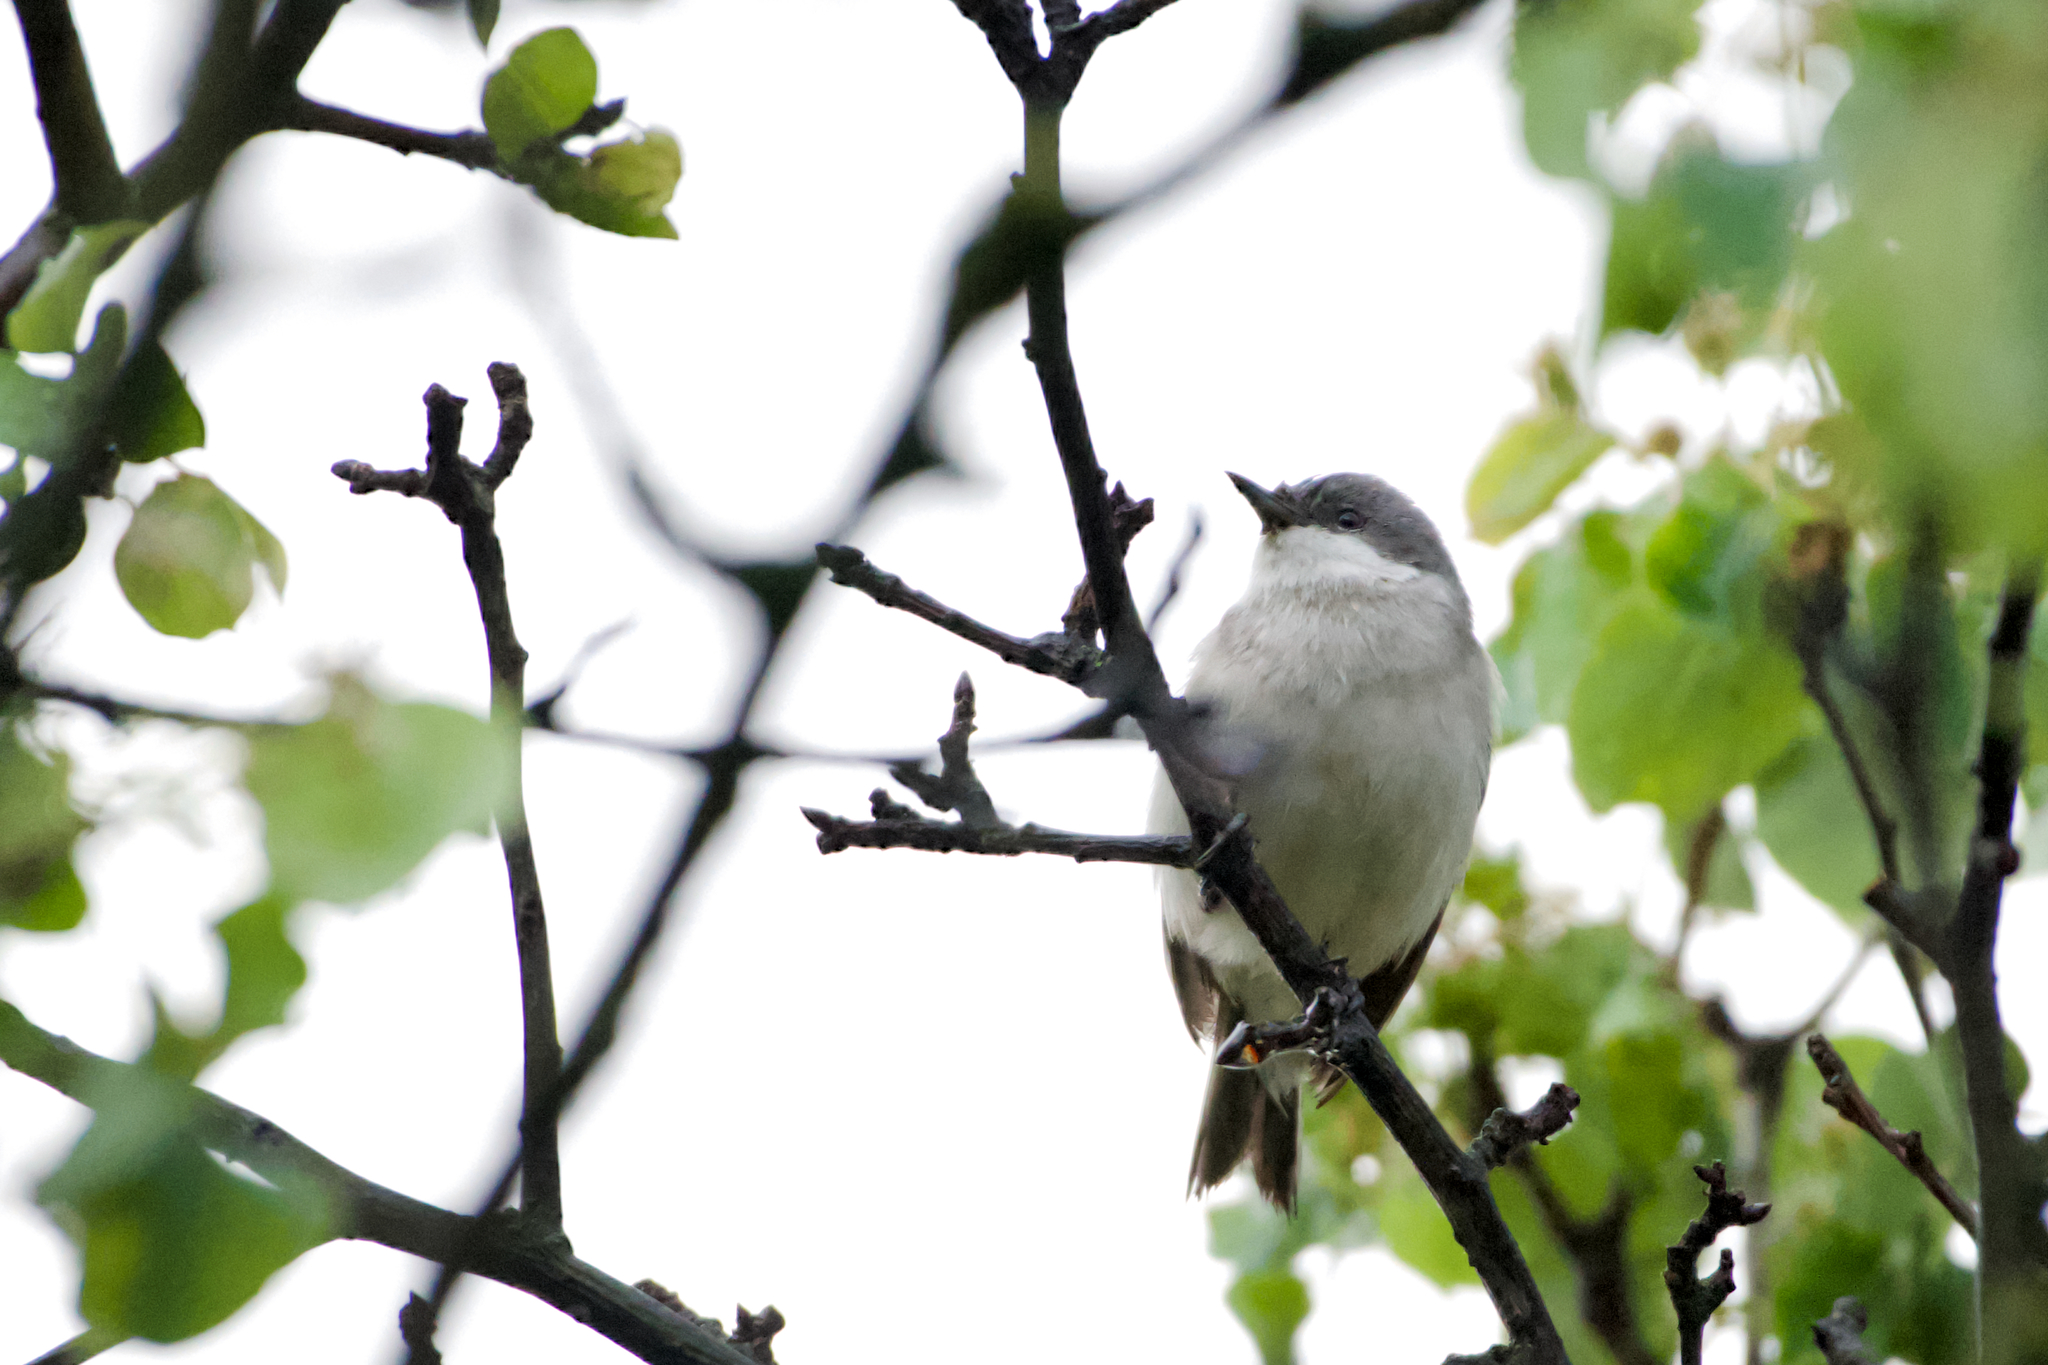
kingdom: Animalia
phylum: Chordata
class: Aves
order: Passeriformes
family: Sylviidae
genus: Sylvia
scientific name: Sylvia curruca
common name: Lesser whitethroat
